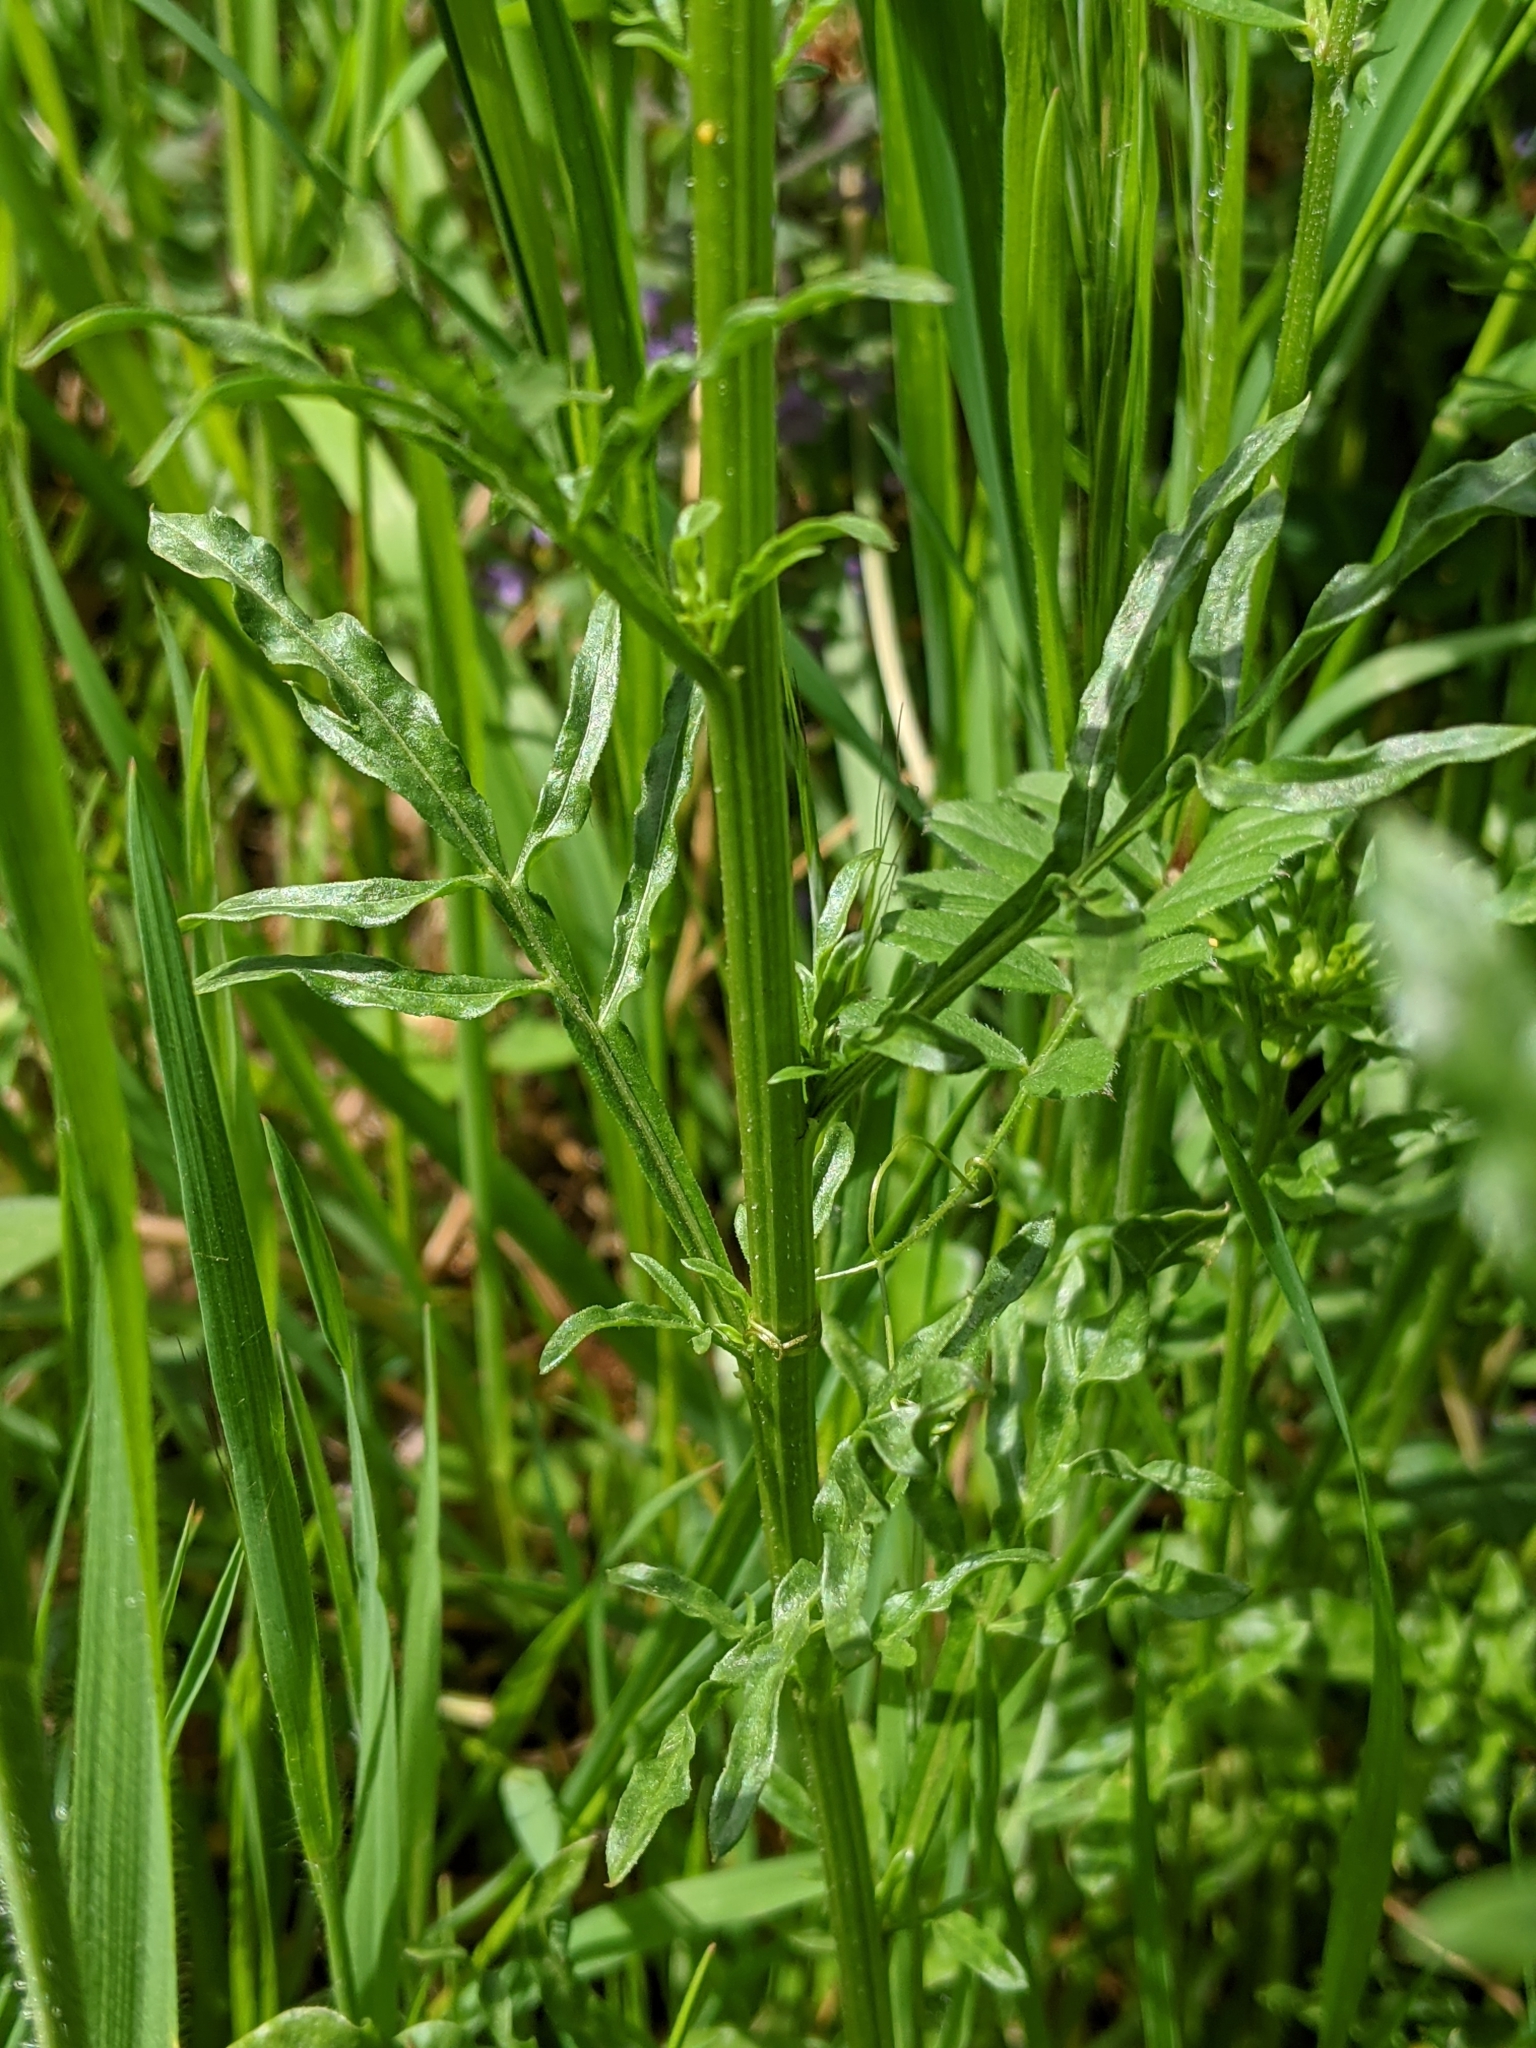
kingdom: Plantae
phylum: Tracheophyta
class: Magnoliopsida
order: Brassicales
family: Resedaceae
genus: Reseda
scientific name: Reseda lutea
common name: Wild mignonette
